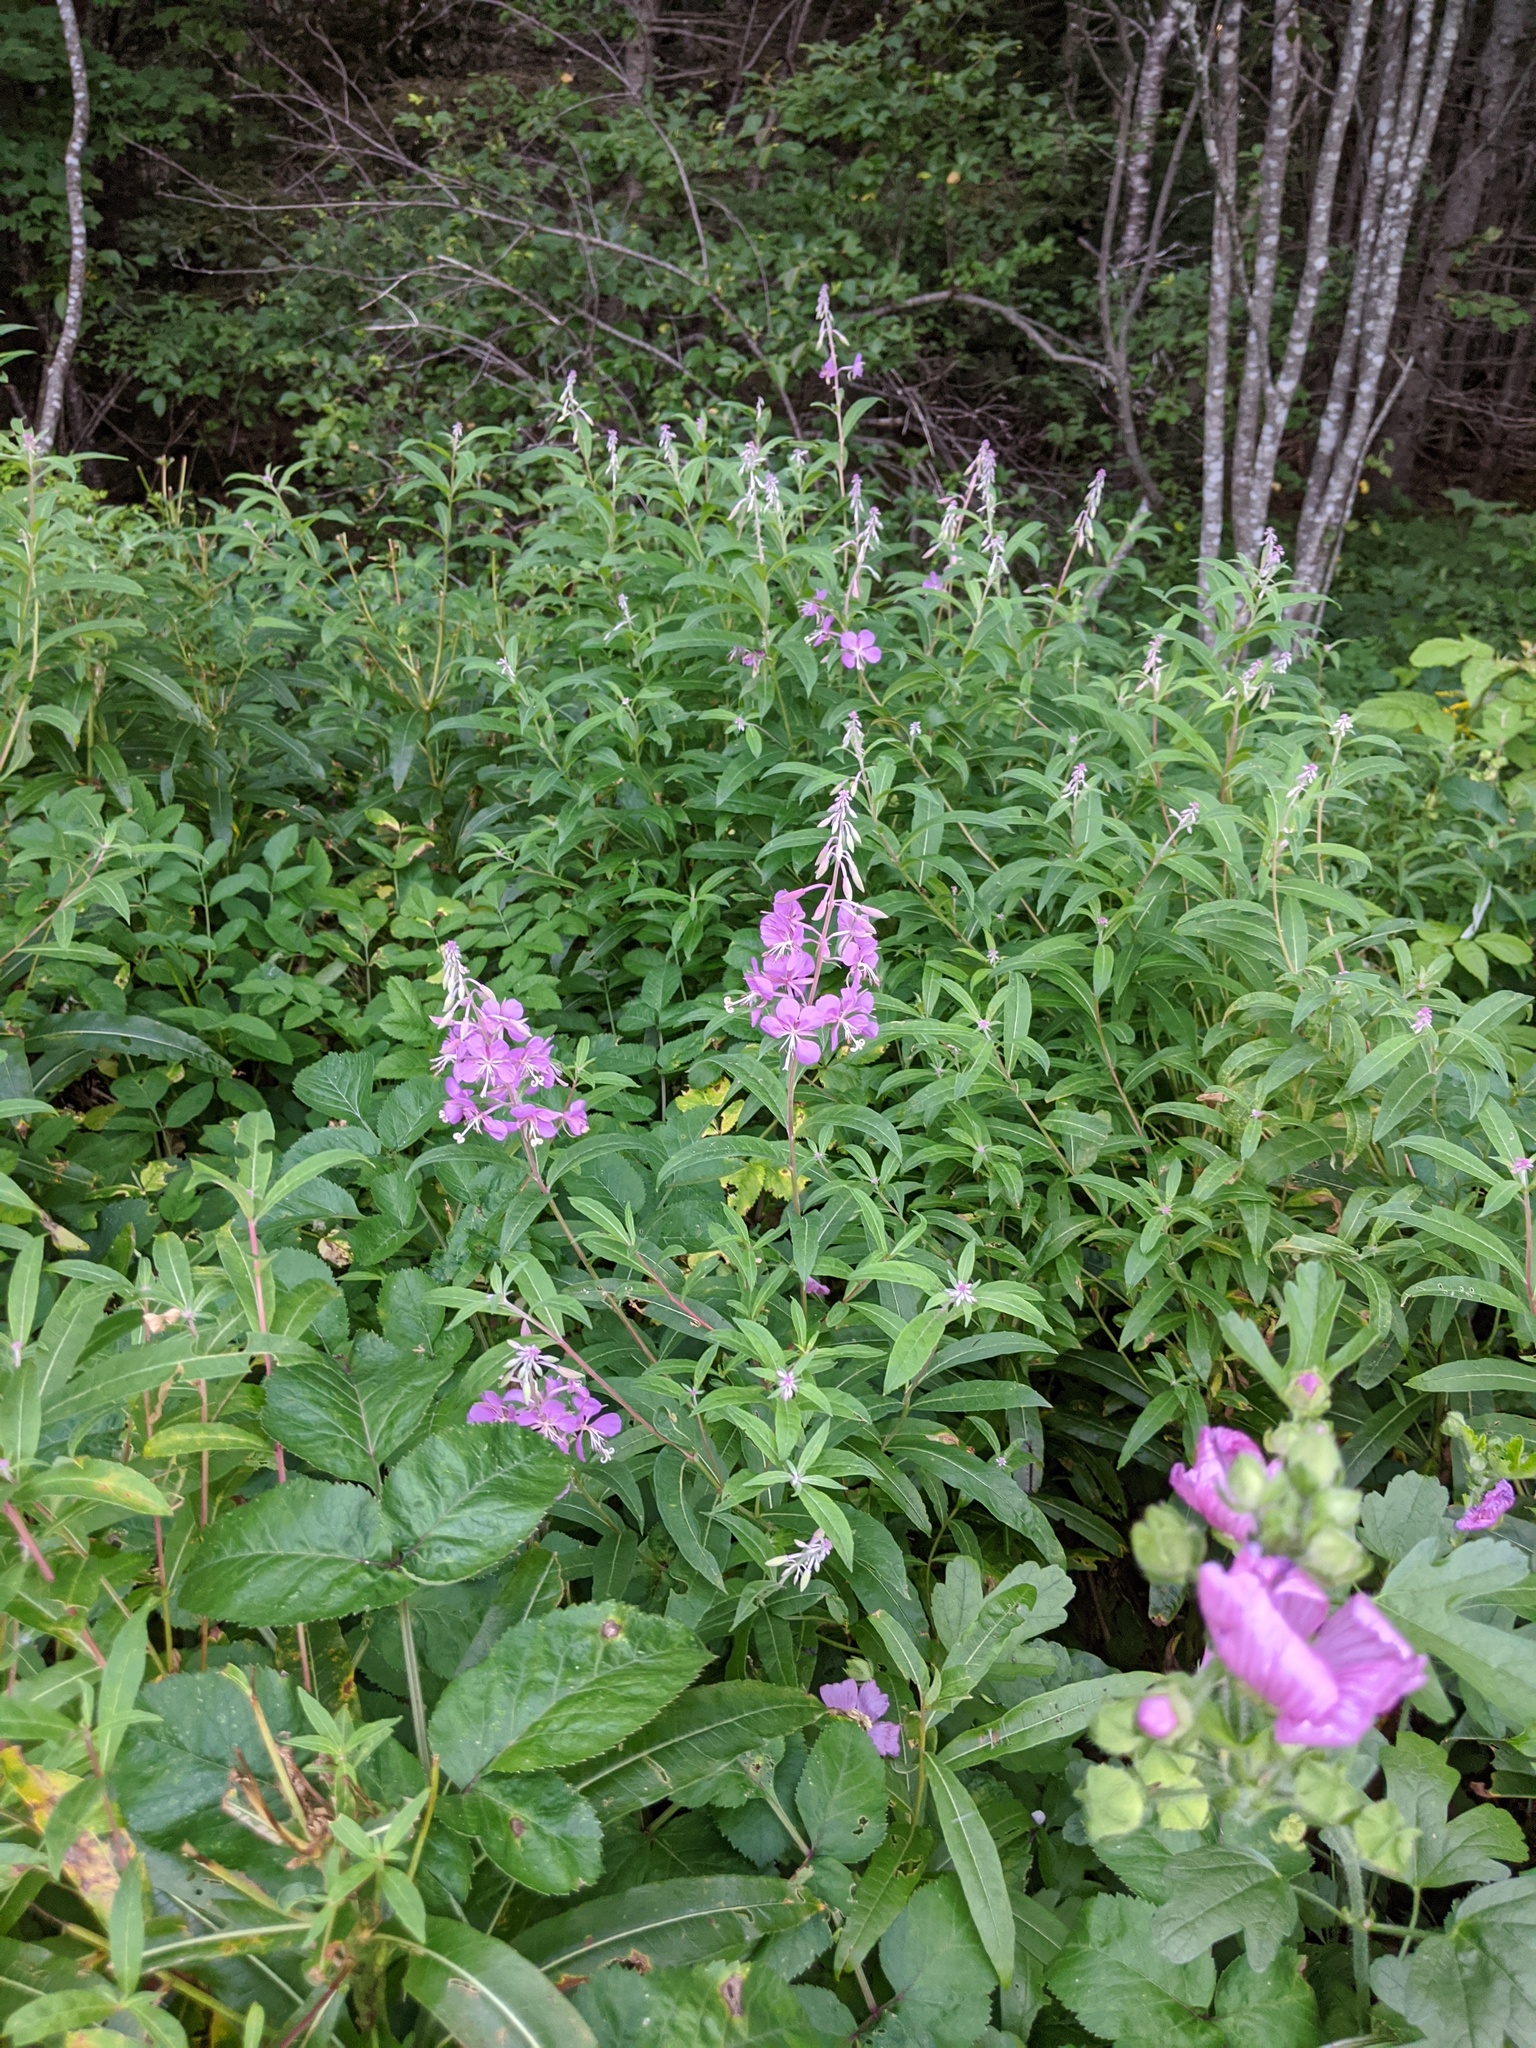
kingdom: Plantae
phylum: Tracheophyta
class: Magnoliopsida
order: Myrtales
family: Onagraceae
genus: Chamaenerion
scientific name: Chamaenerion angustifolium
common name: Fireweed
